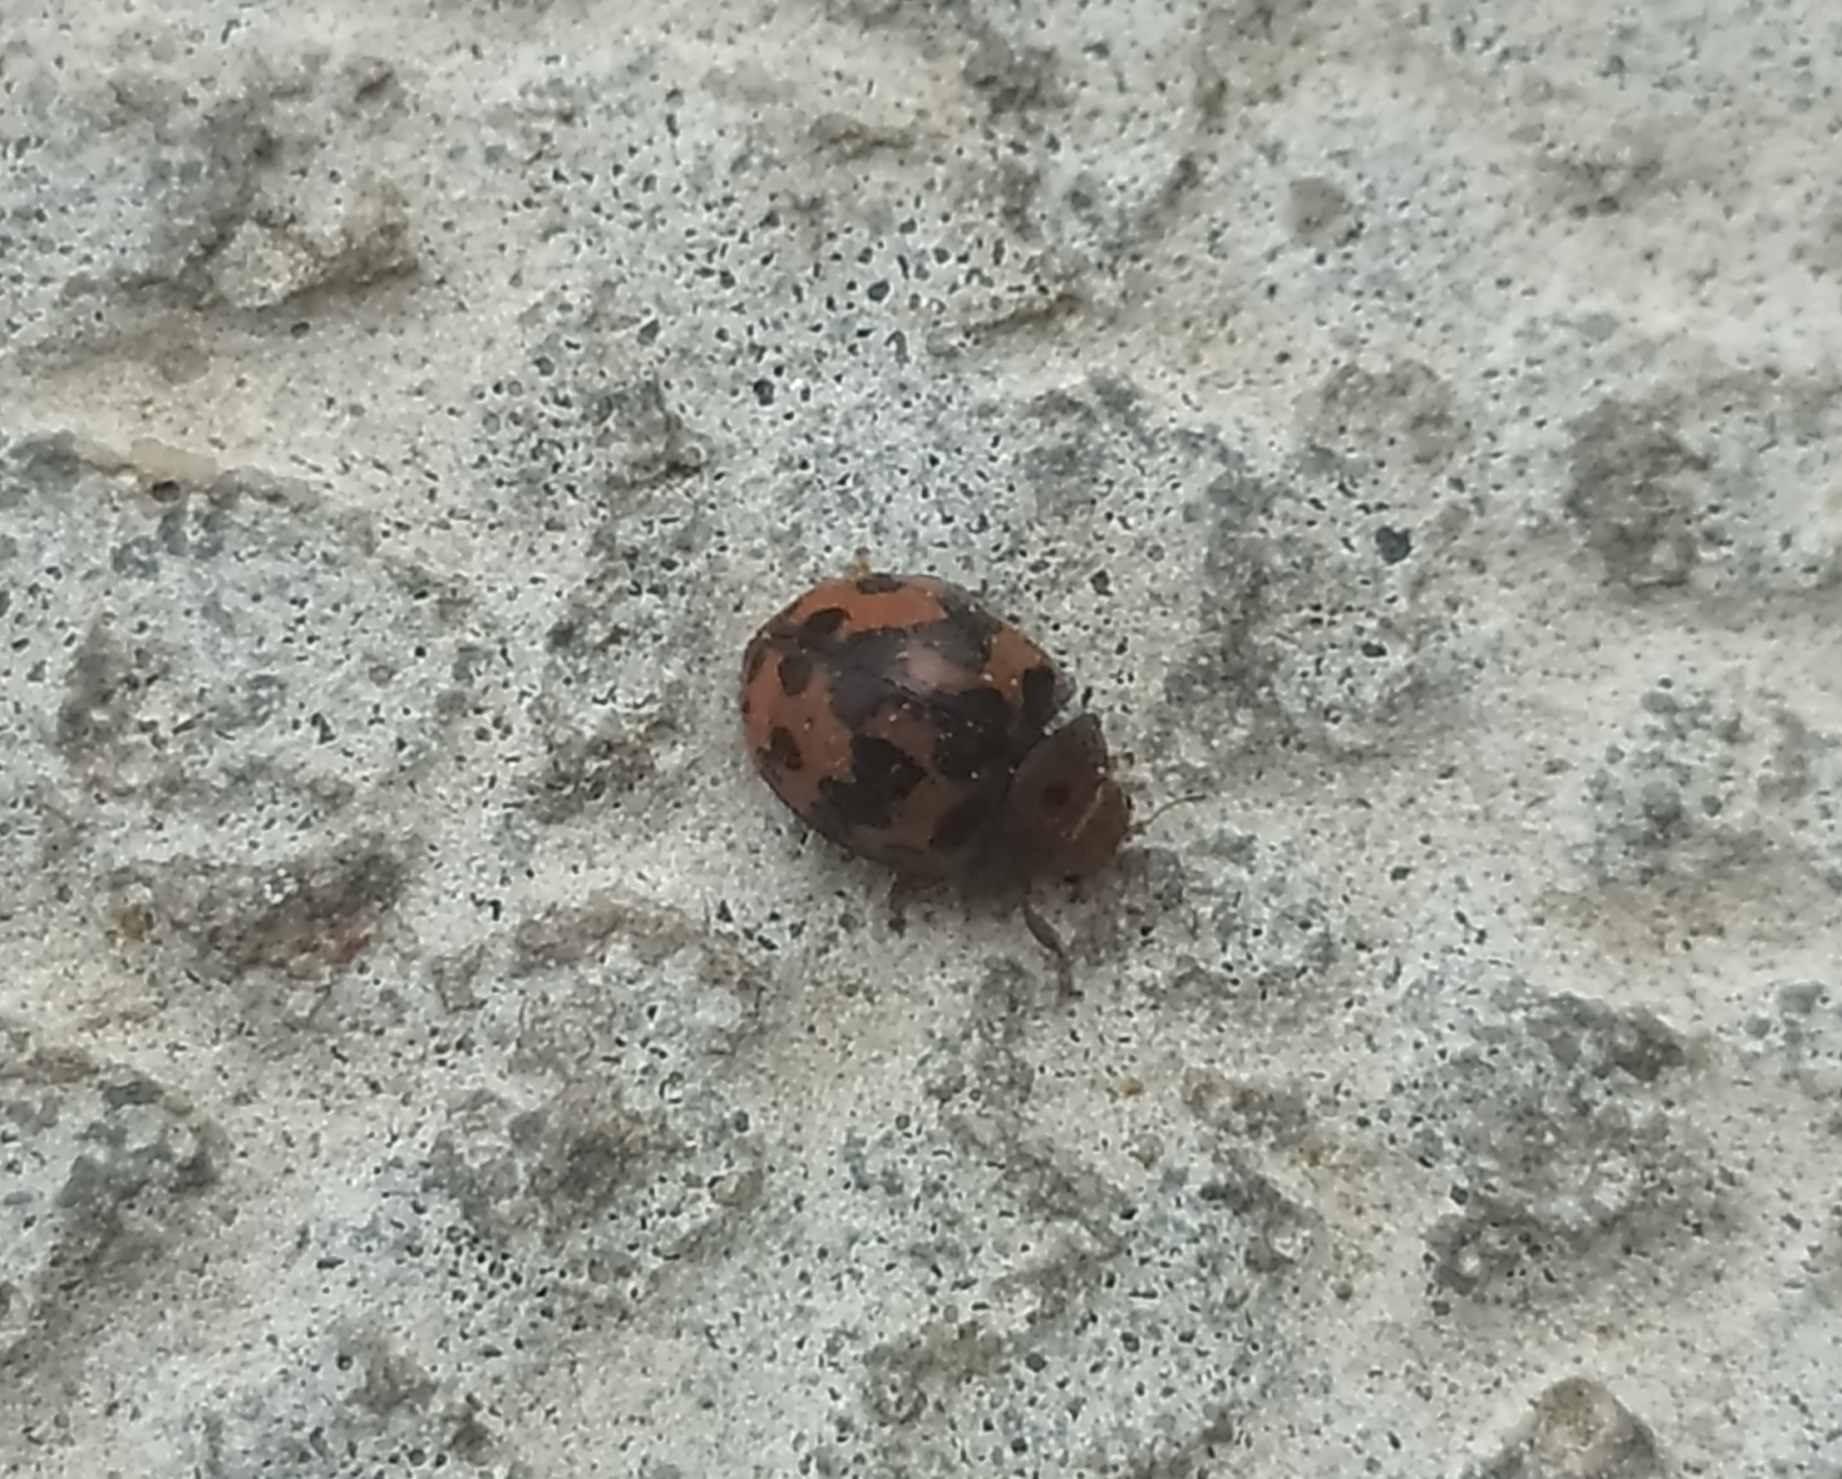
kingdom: Animalia
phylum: Arthropoda
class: Insecta
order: Coleoptera
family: Coccinellidae
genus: Subcoccinella
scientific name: Subcoccinella vigintiquatuorpunctata
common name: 24-spot ladybird
